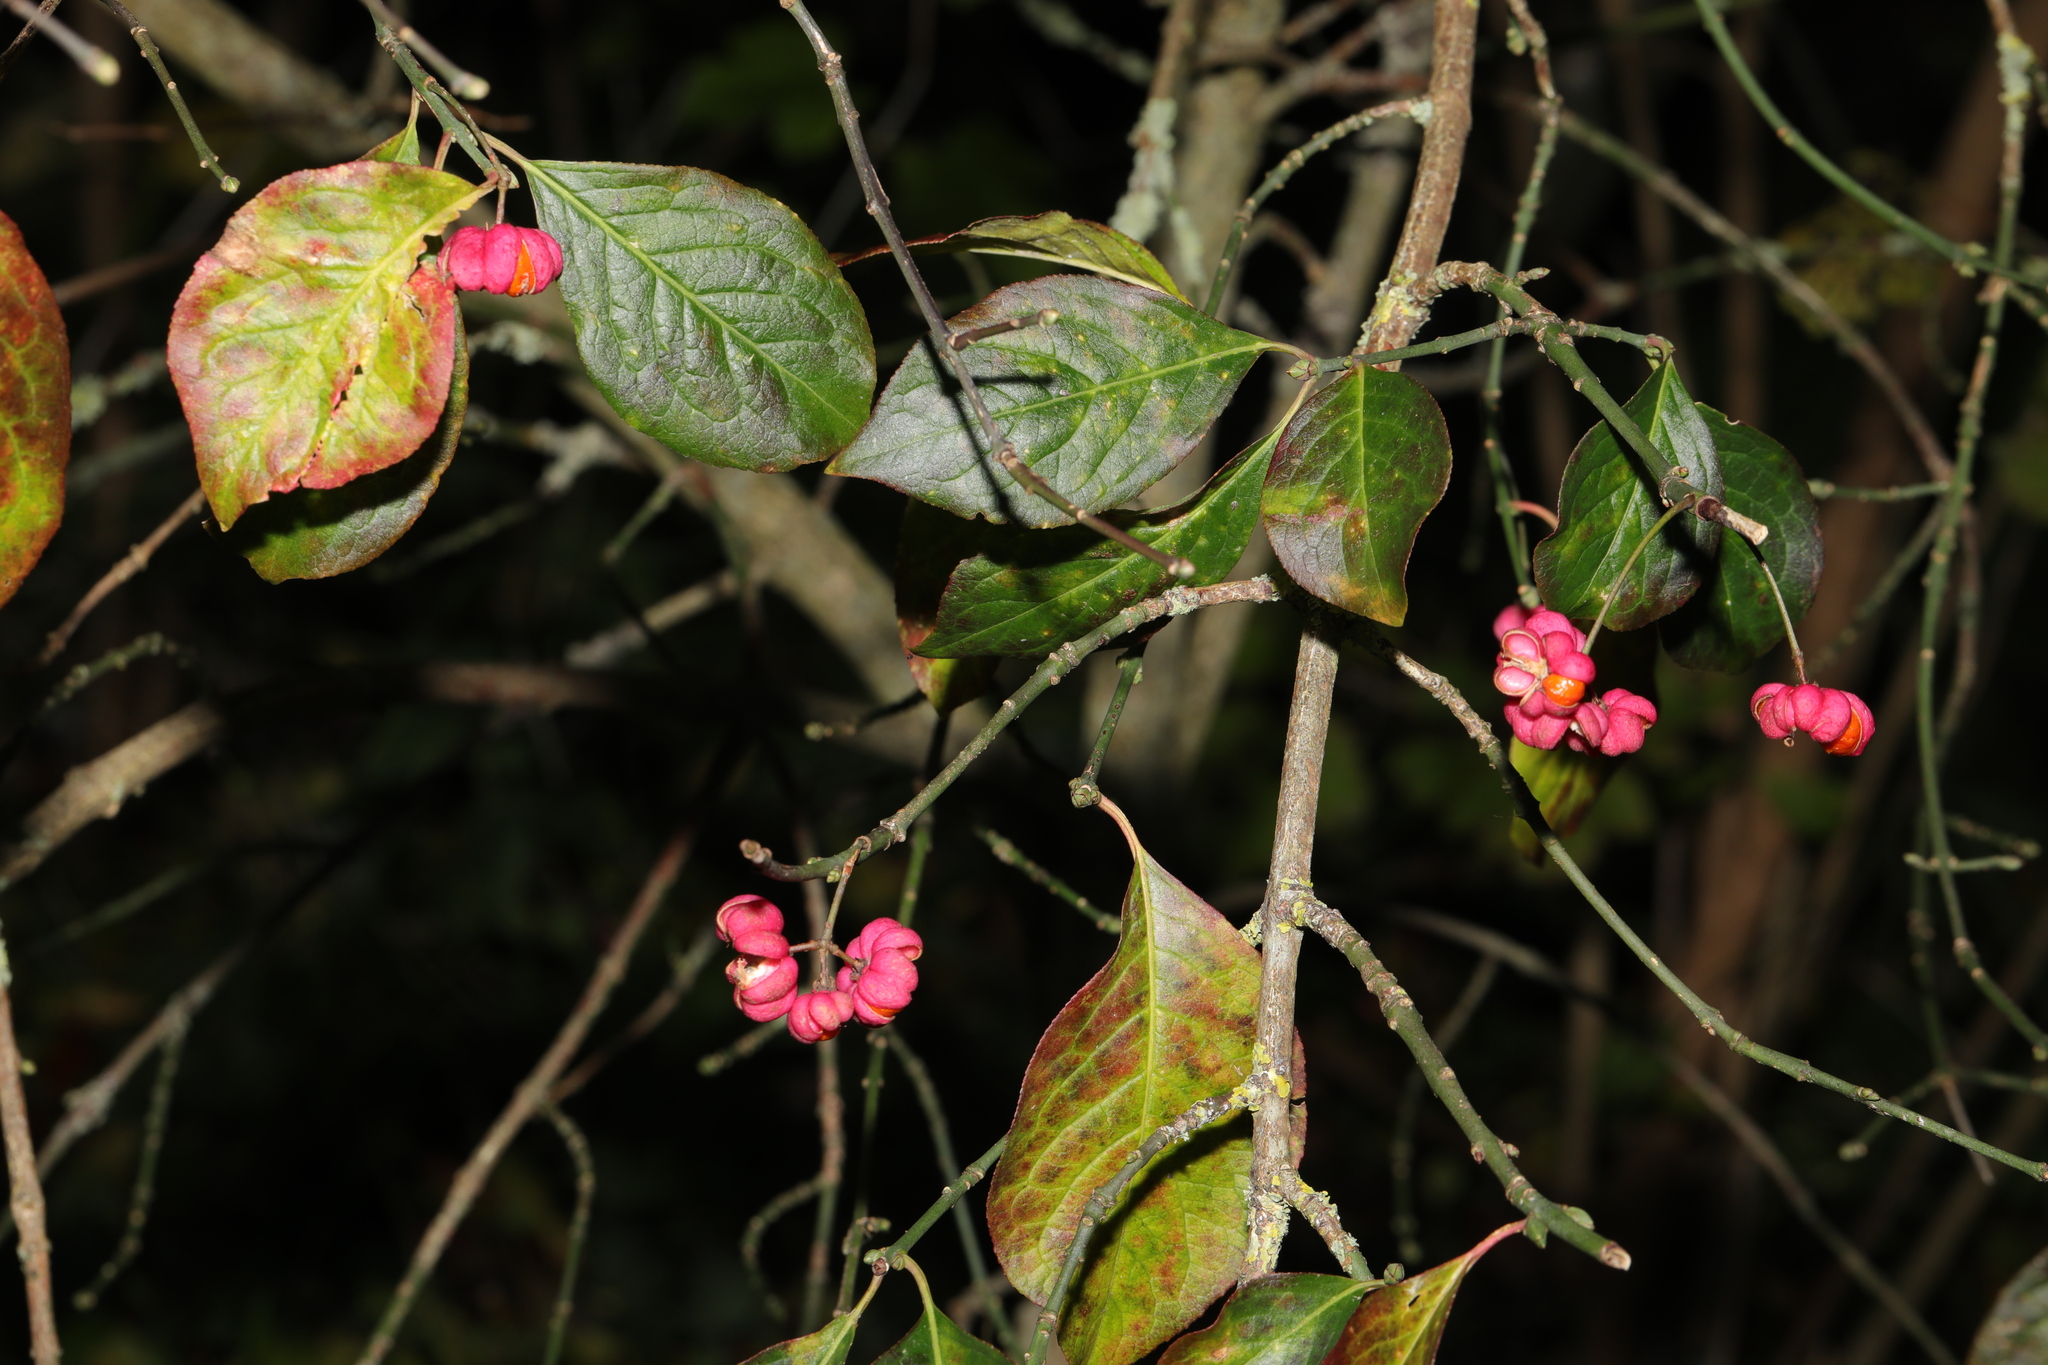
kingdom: Plantae
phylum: Tracheophyta
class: Magnoliopsida
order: Celastrales
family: Celastraceae
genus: Euonymus
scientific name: Euonymus europaeus
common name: Spindle
